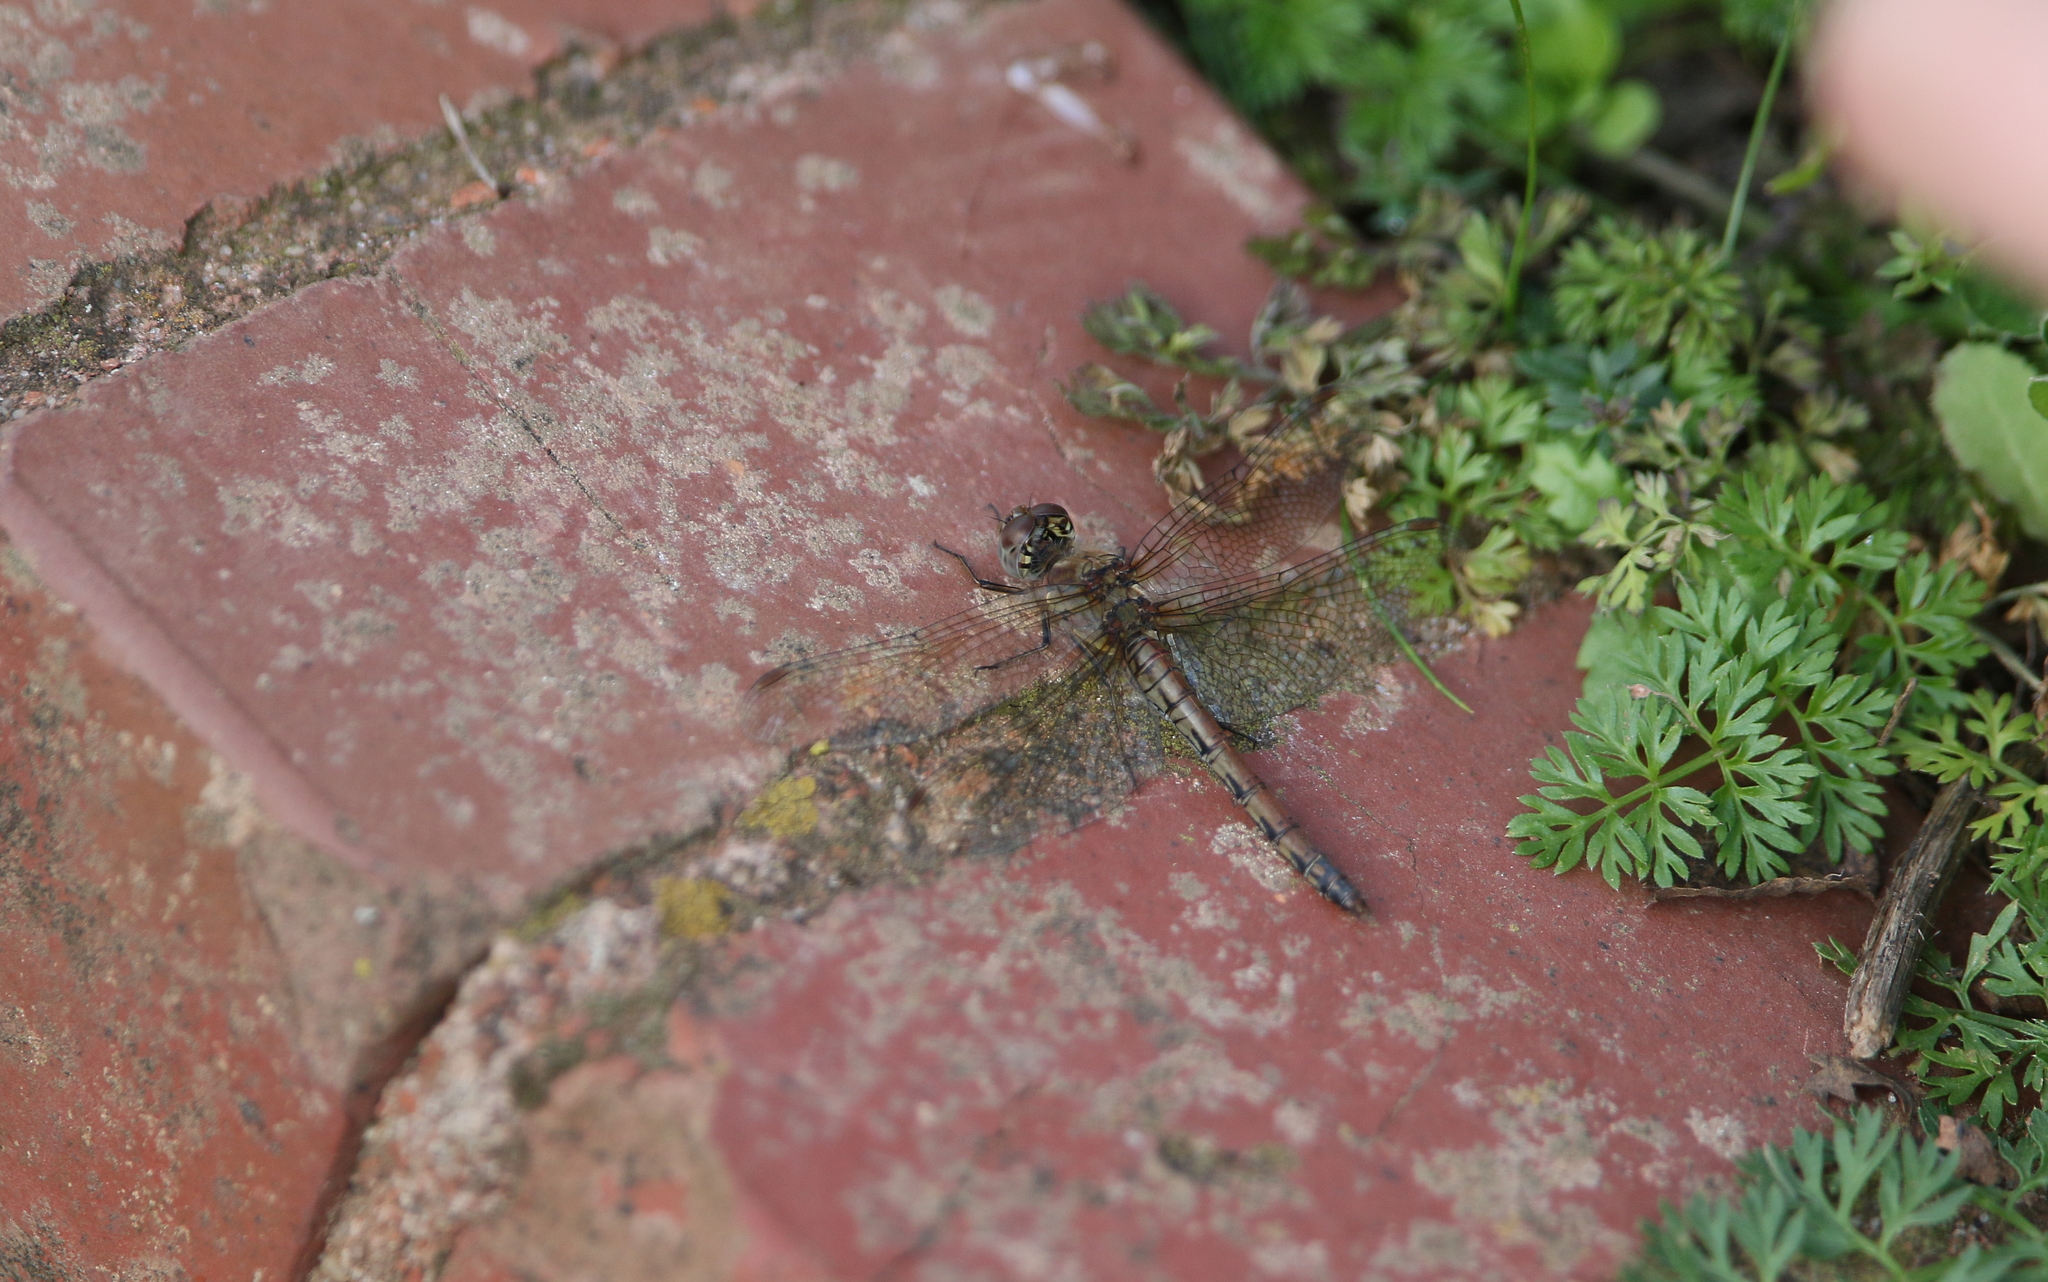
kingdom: Animalia
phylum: Arthropoda
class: Insecta
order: Odonata
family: Libellulidae
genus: Sympetrum
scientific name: Sympetrum striolatum
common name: Common darter
